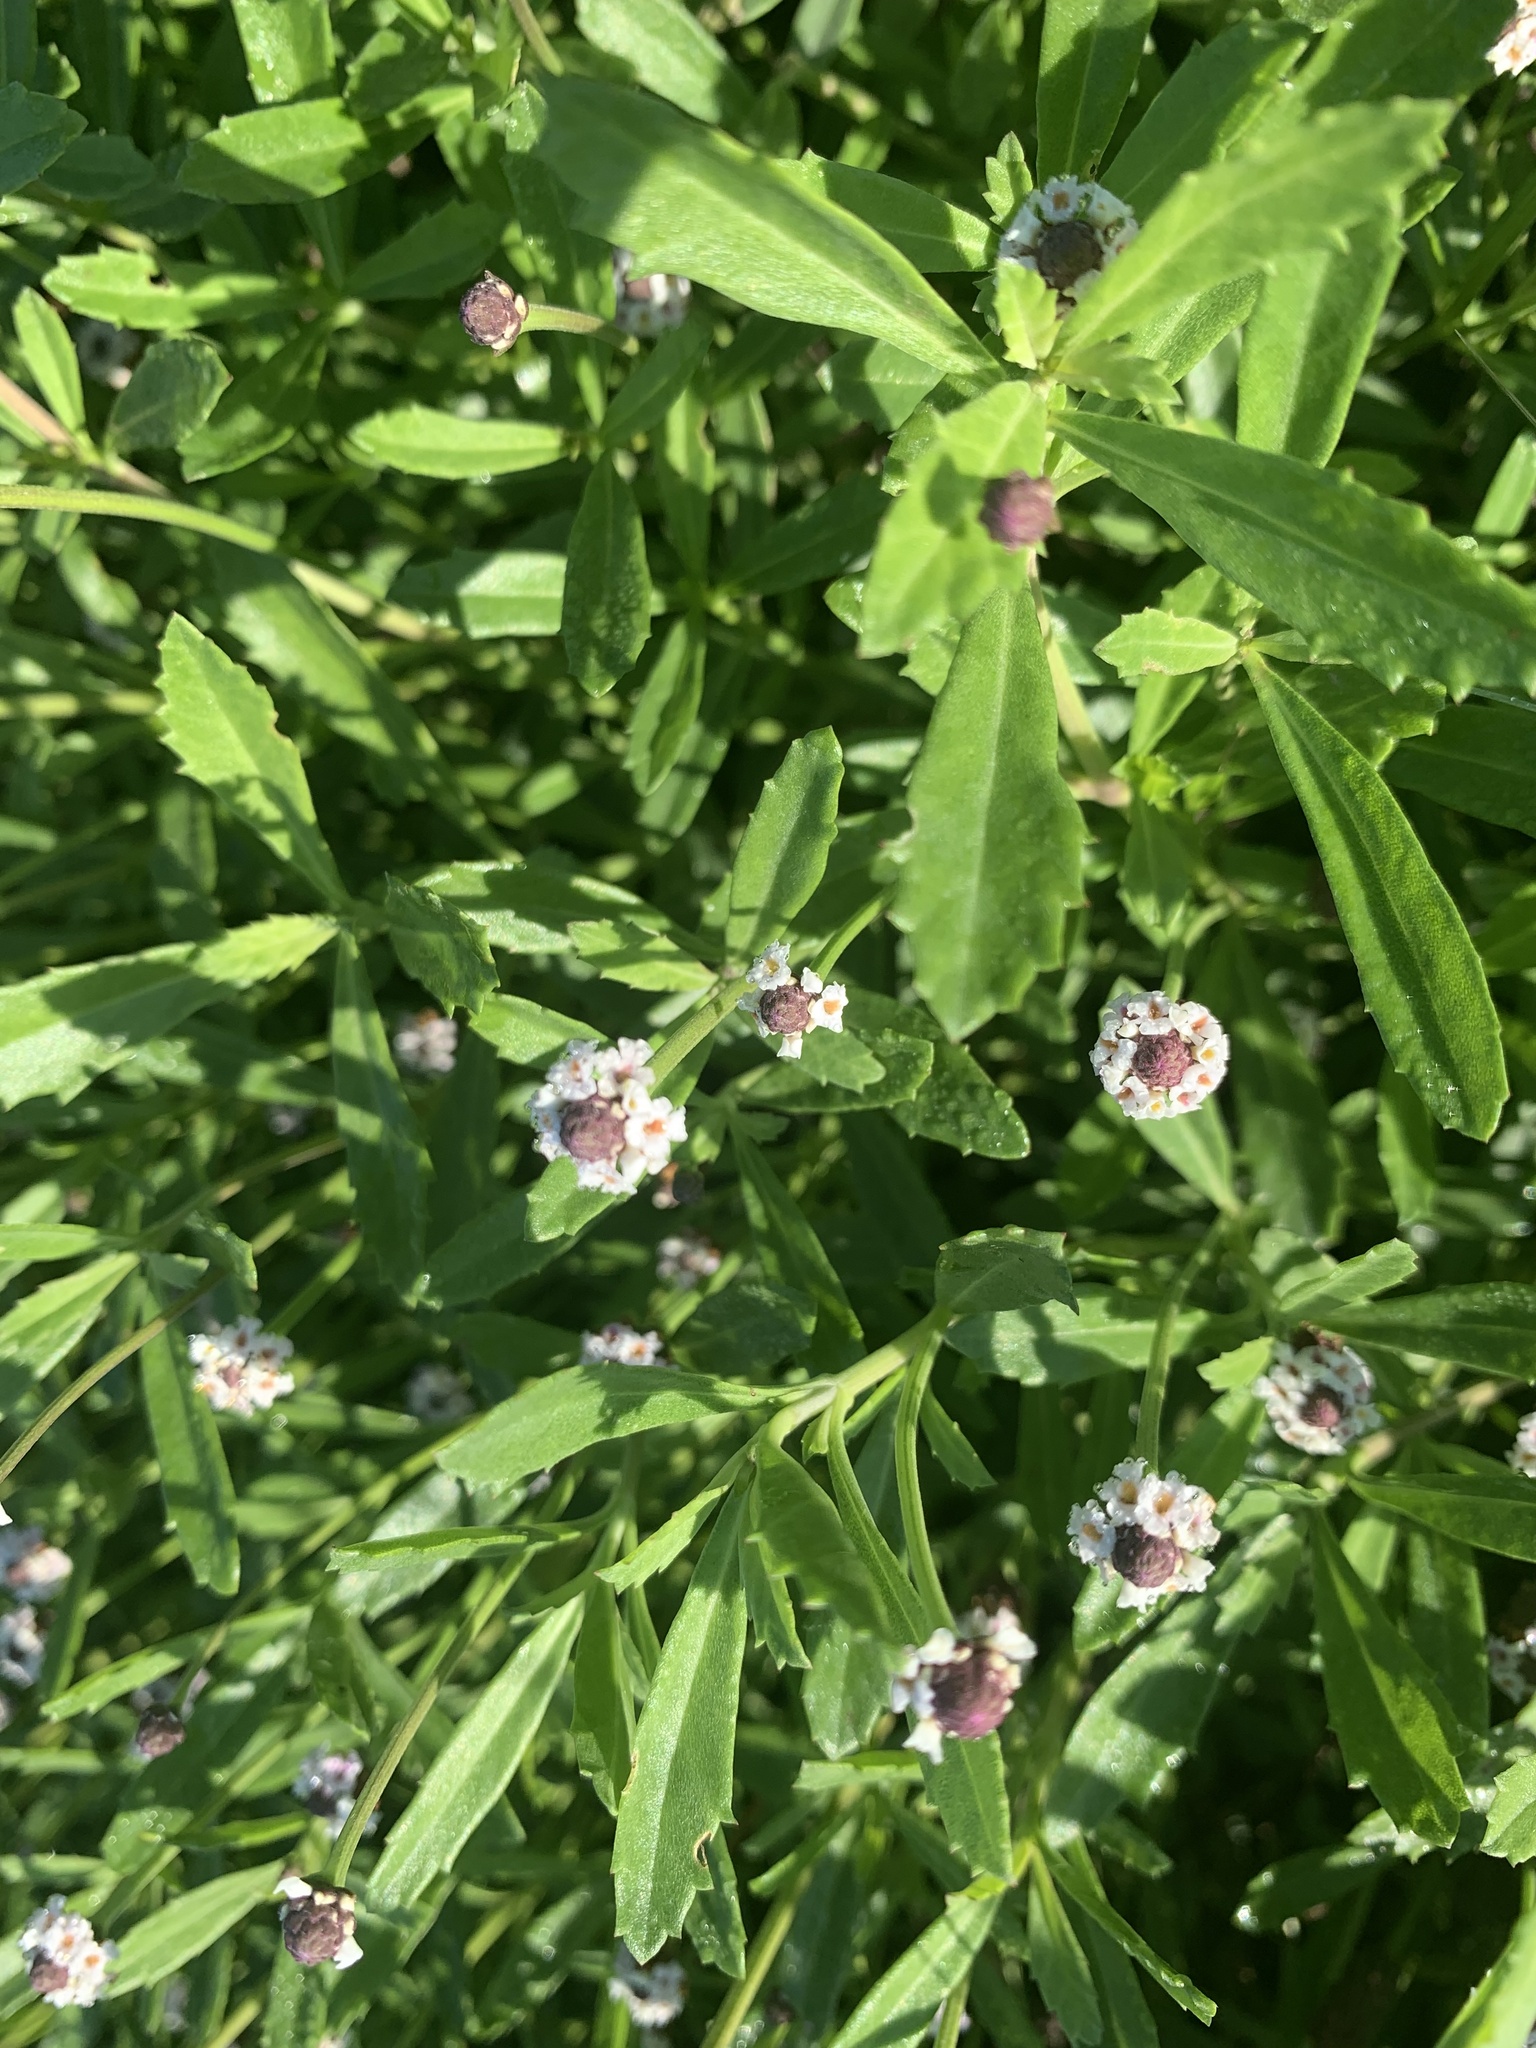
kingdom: Plantae
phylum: Tracheophyta
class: Magnoliopsida
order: Lamiales
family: Verbenaceae
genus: Phyla
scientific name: Phyla nodiflora
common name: Frogfruit
